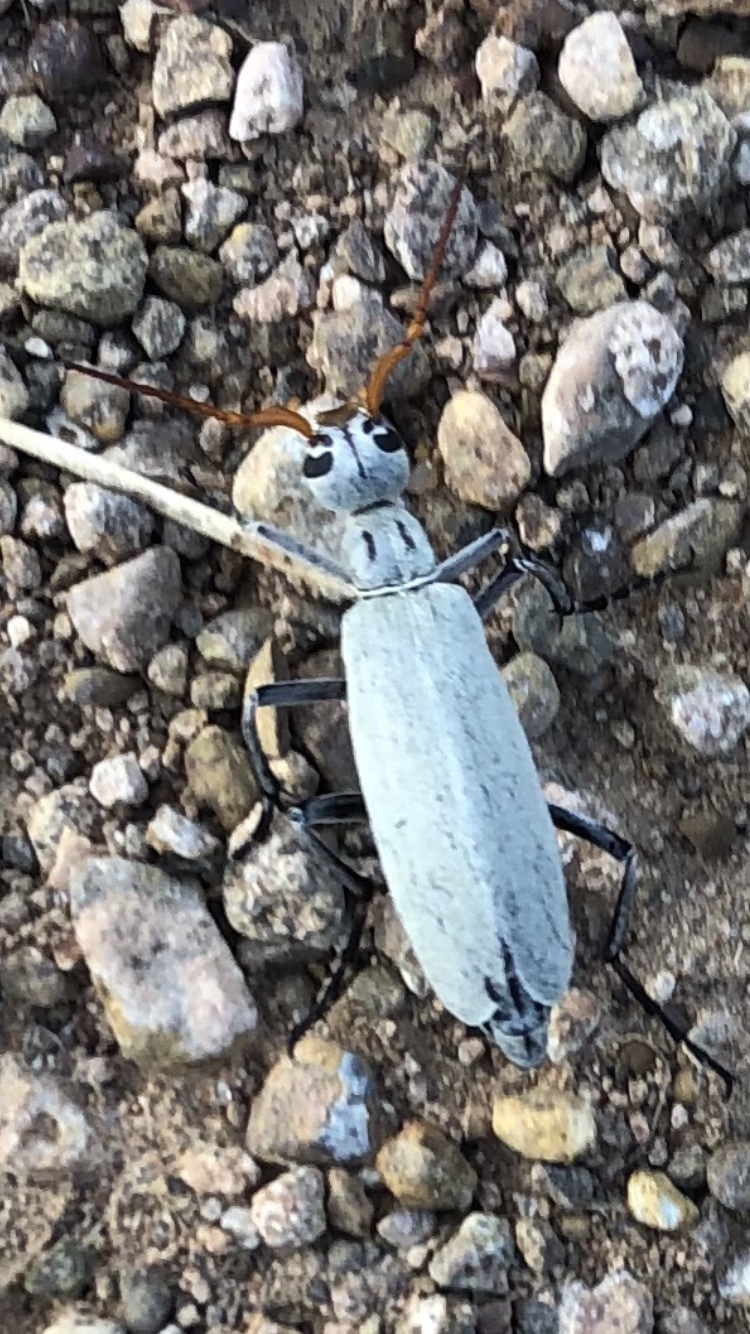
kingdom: Animalia
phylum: Arthropoda
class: Insecta
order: Coleoptera
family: Meloidae
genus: Epicauta
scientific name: Epicauta albida
